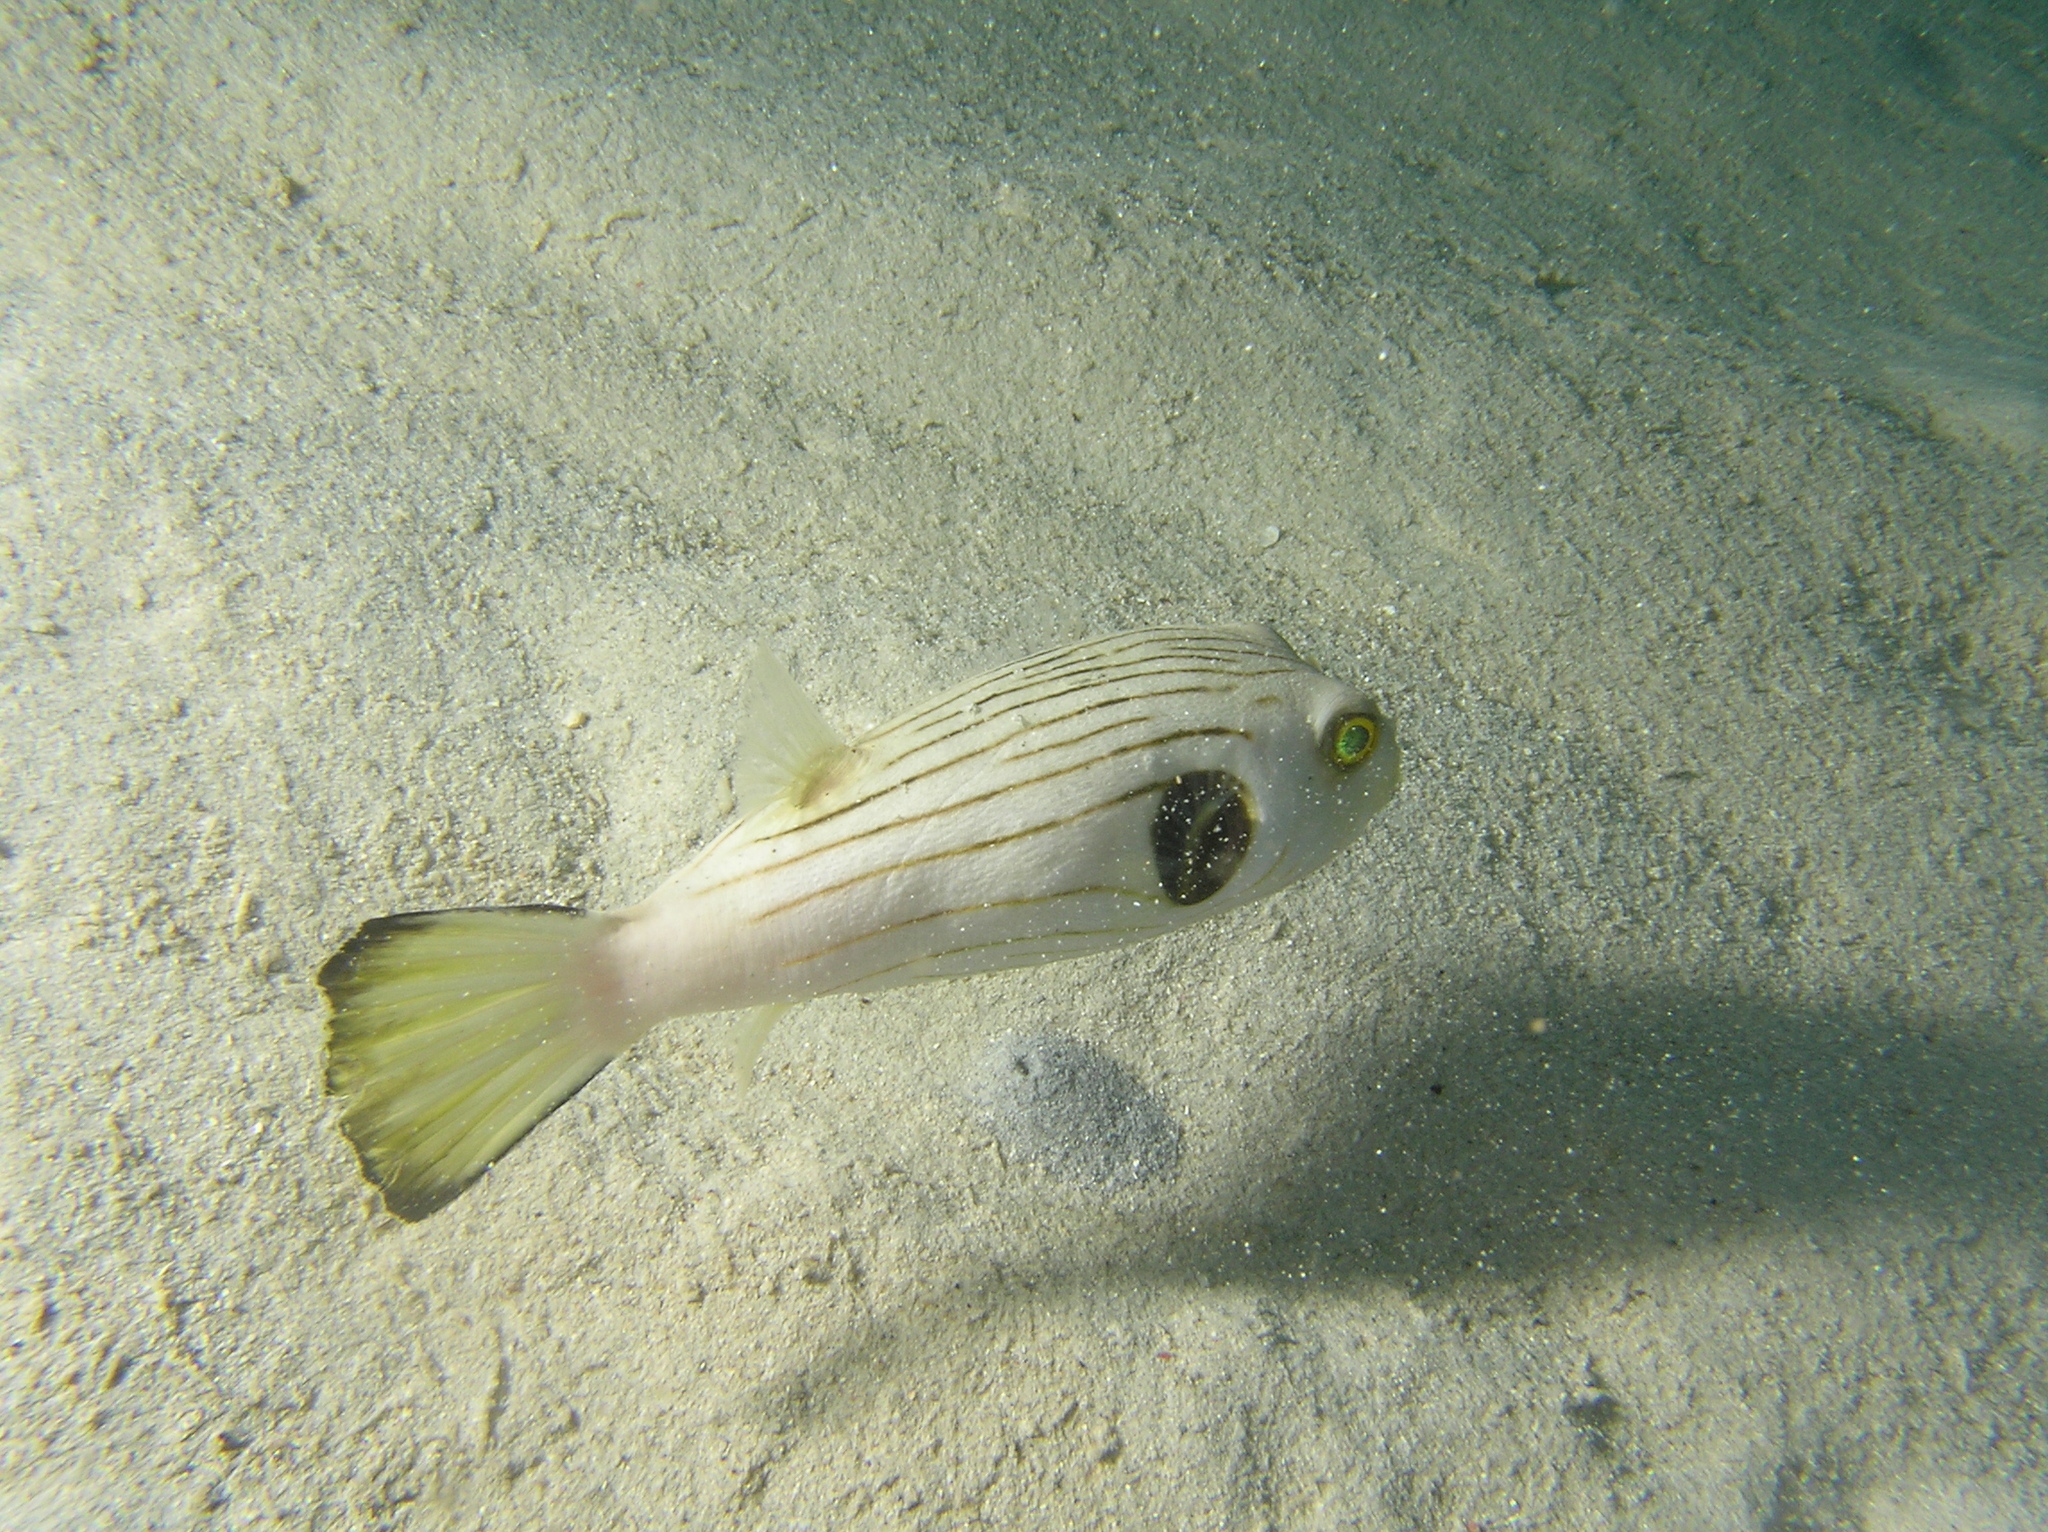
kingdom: Animalia
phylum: Chordata
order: Tetraodontiformes
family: Tetraodontidae
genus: Arothron
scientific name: Arothron manilensis
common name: Narrow-lined puffer
